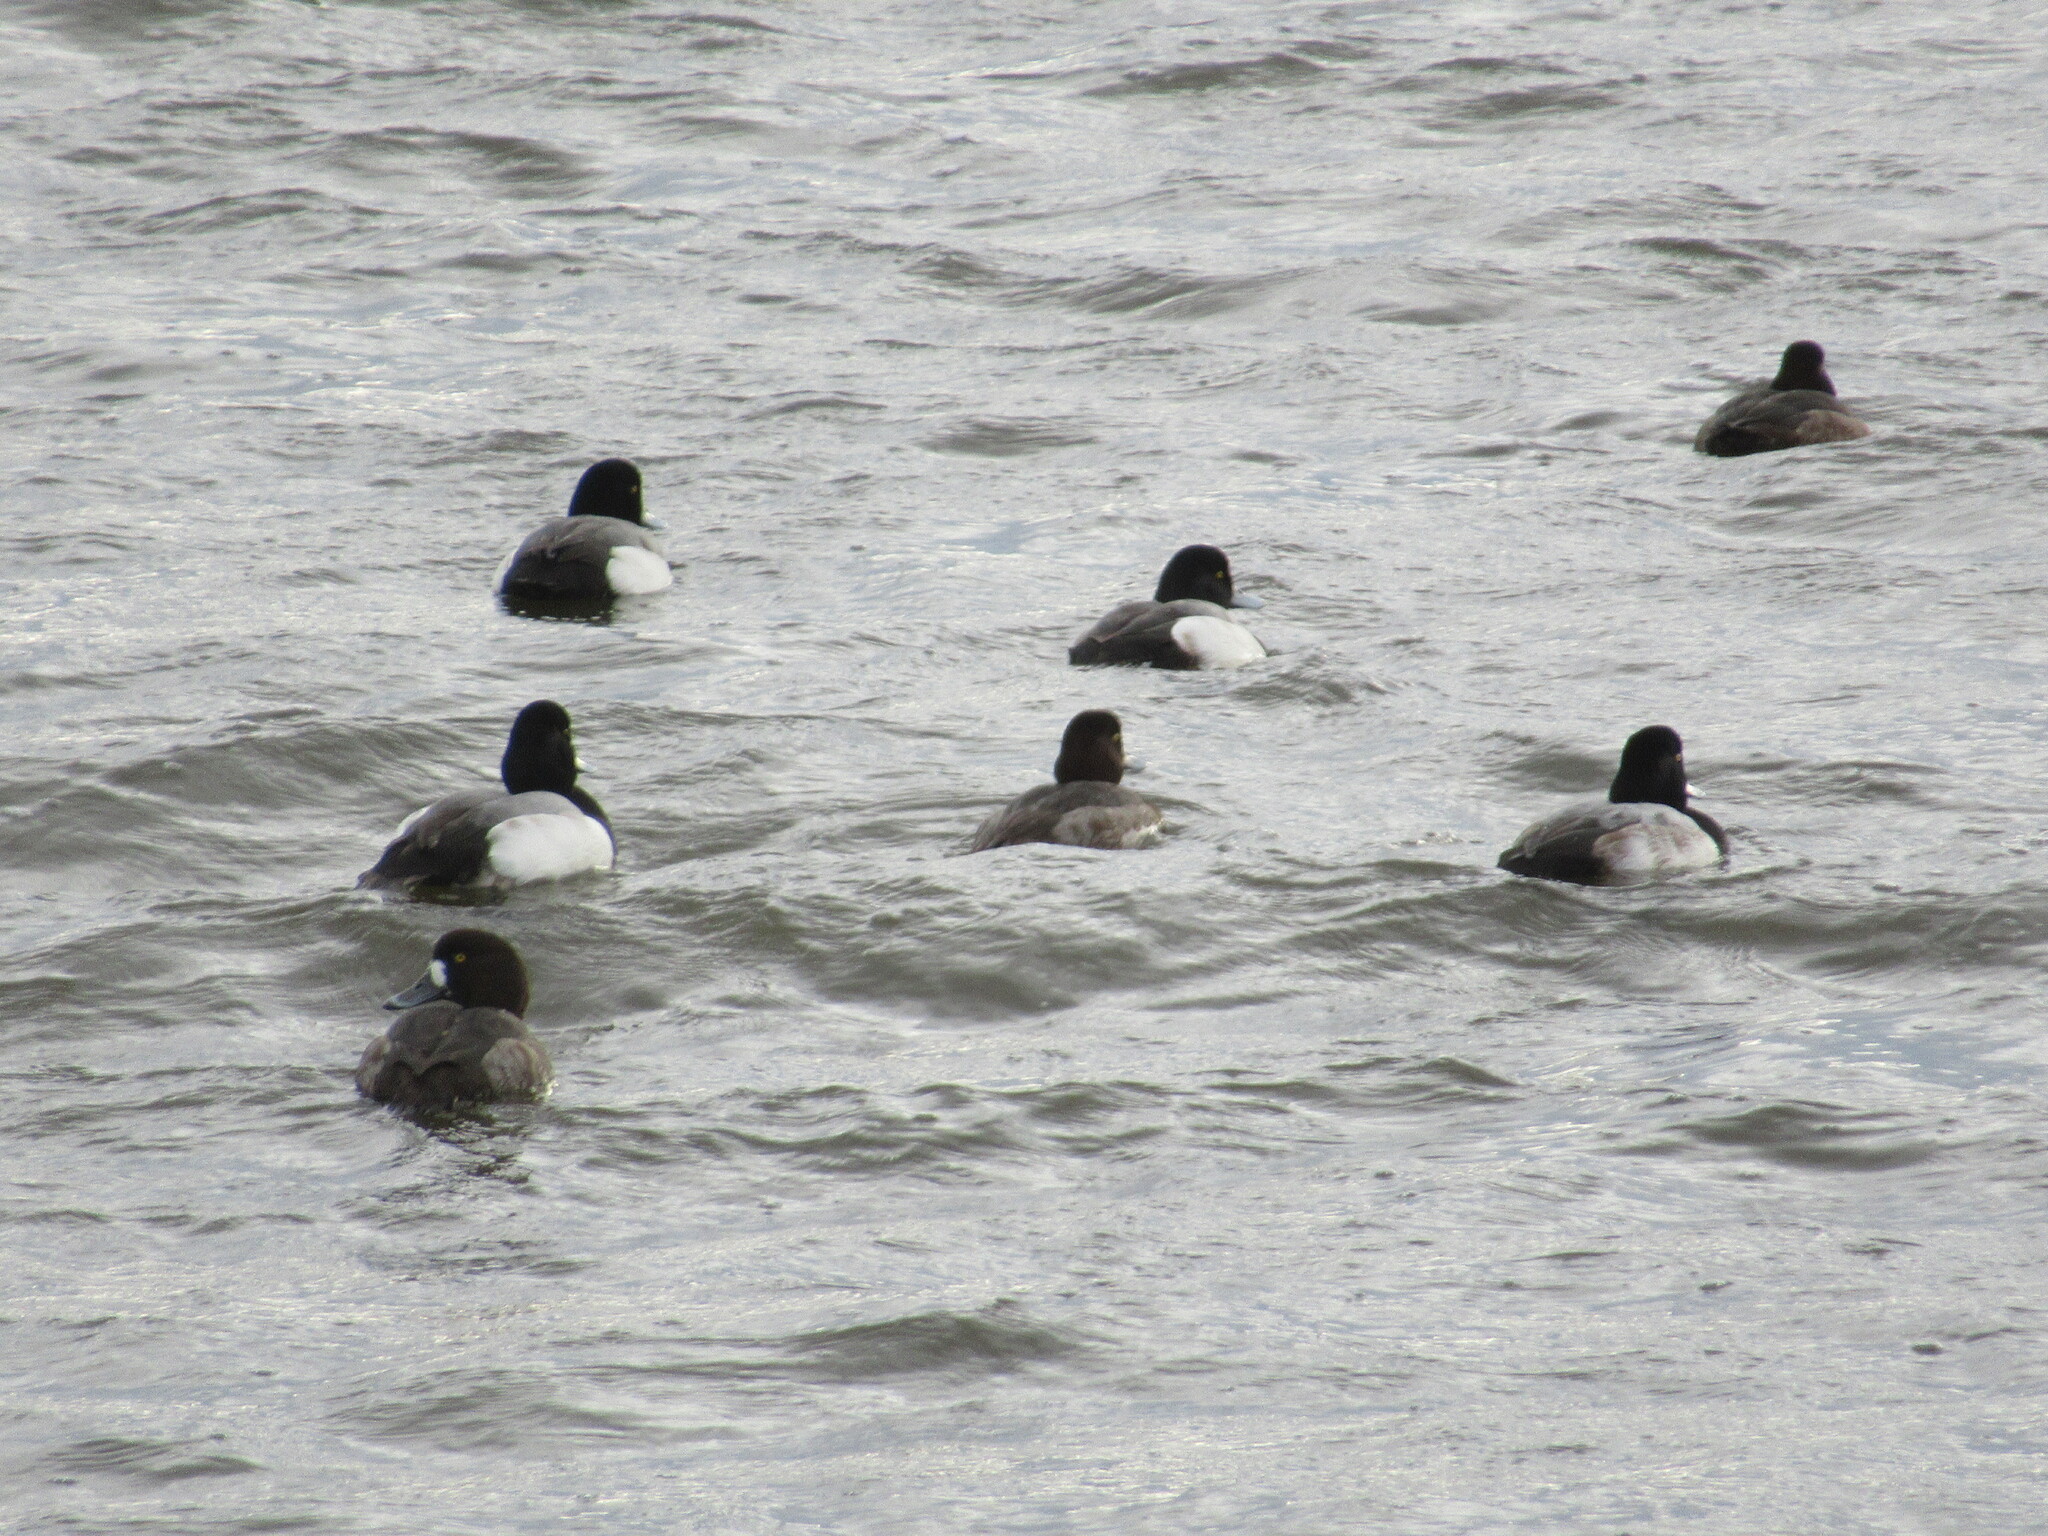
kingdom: Animalia
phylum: Chordata
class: Aves
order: Anseriformes
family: Anatidae
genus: Aythya
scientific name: Aythya marila
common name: Greater scaup
